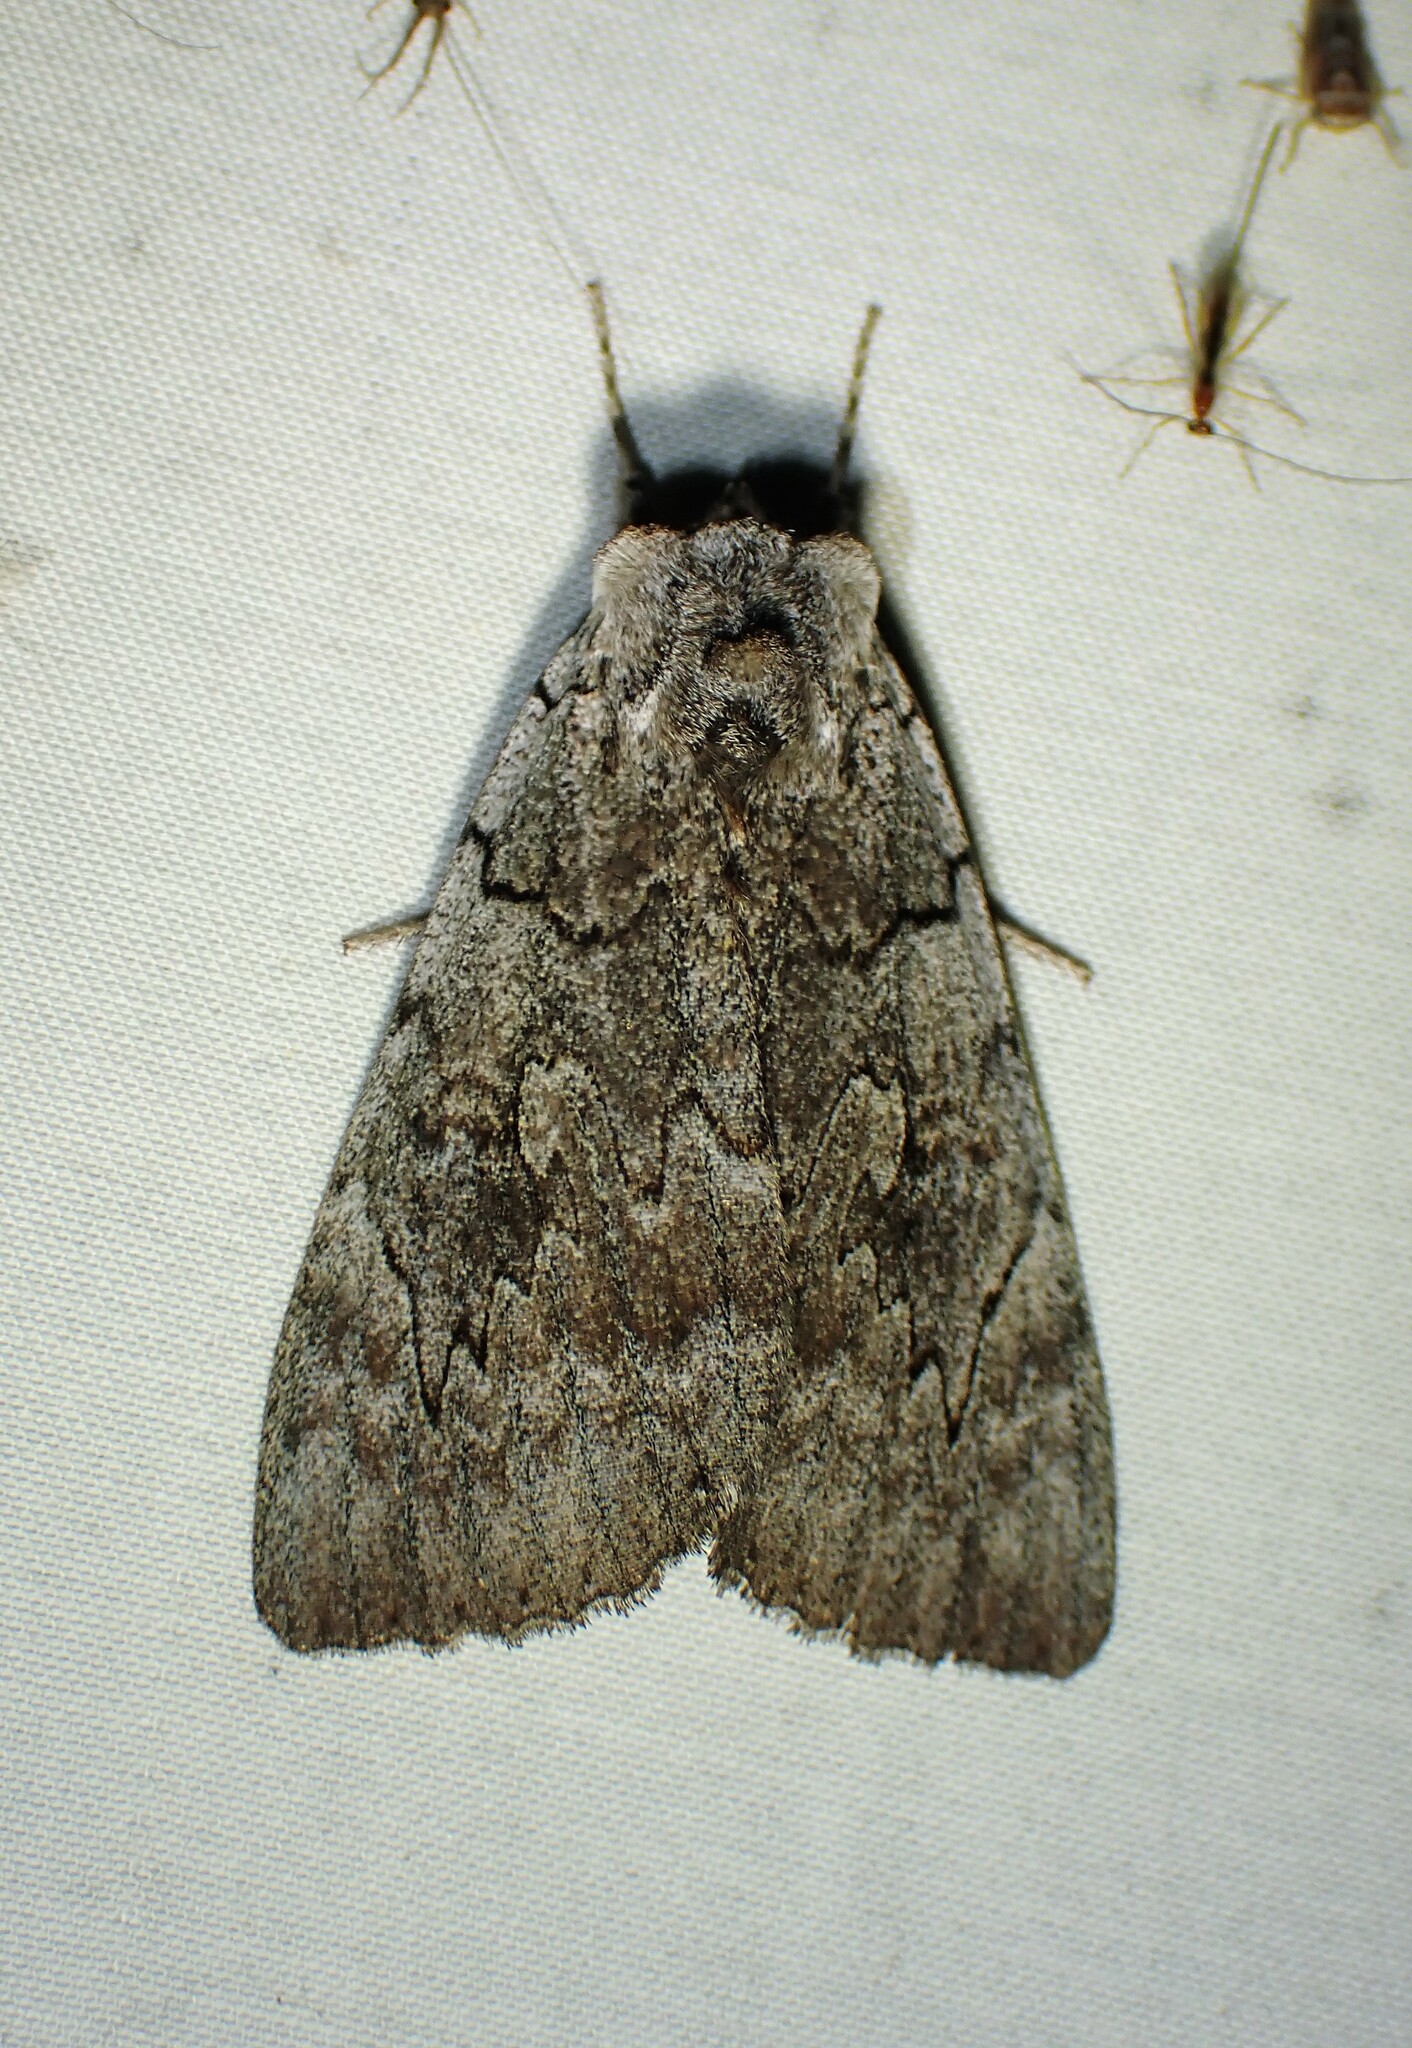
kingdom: Animalia
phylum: Arthropoda
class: Insecta
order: Lepidoptera
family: Erebidae
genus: Catocala
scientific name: Catocala concumbens
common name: Pink underwing
